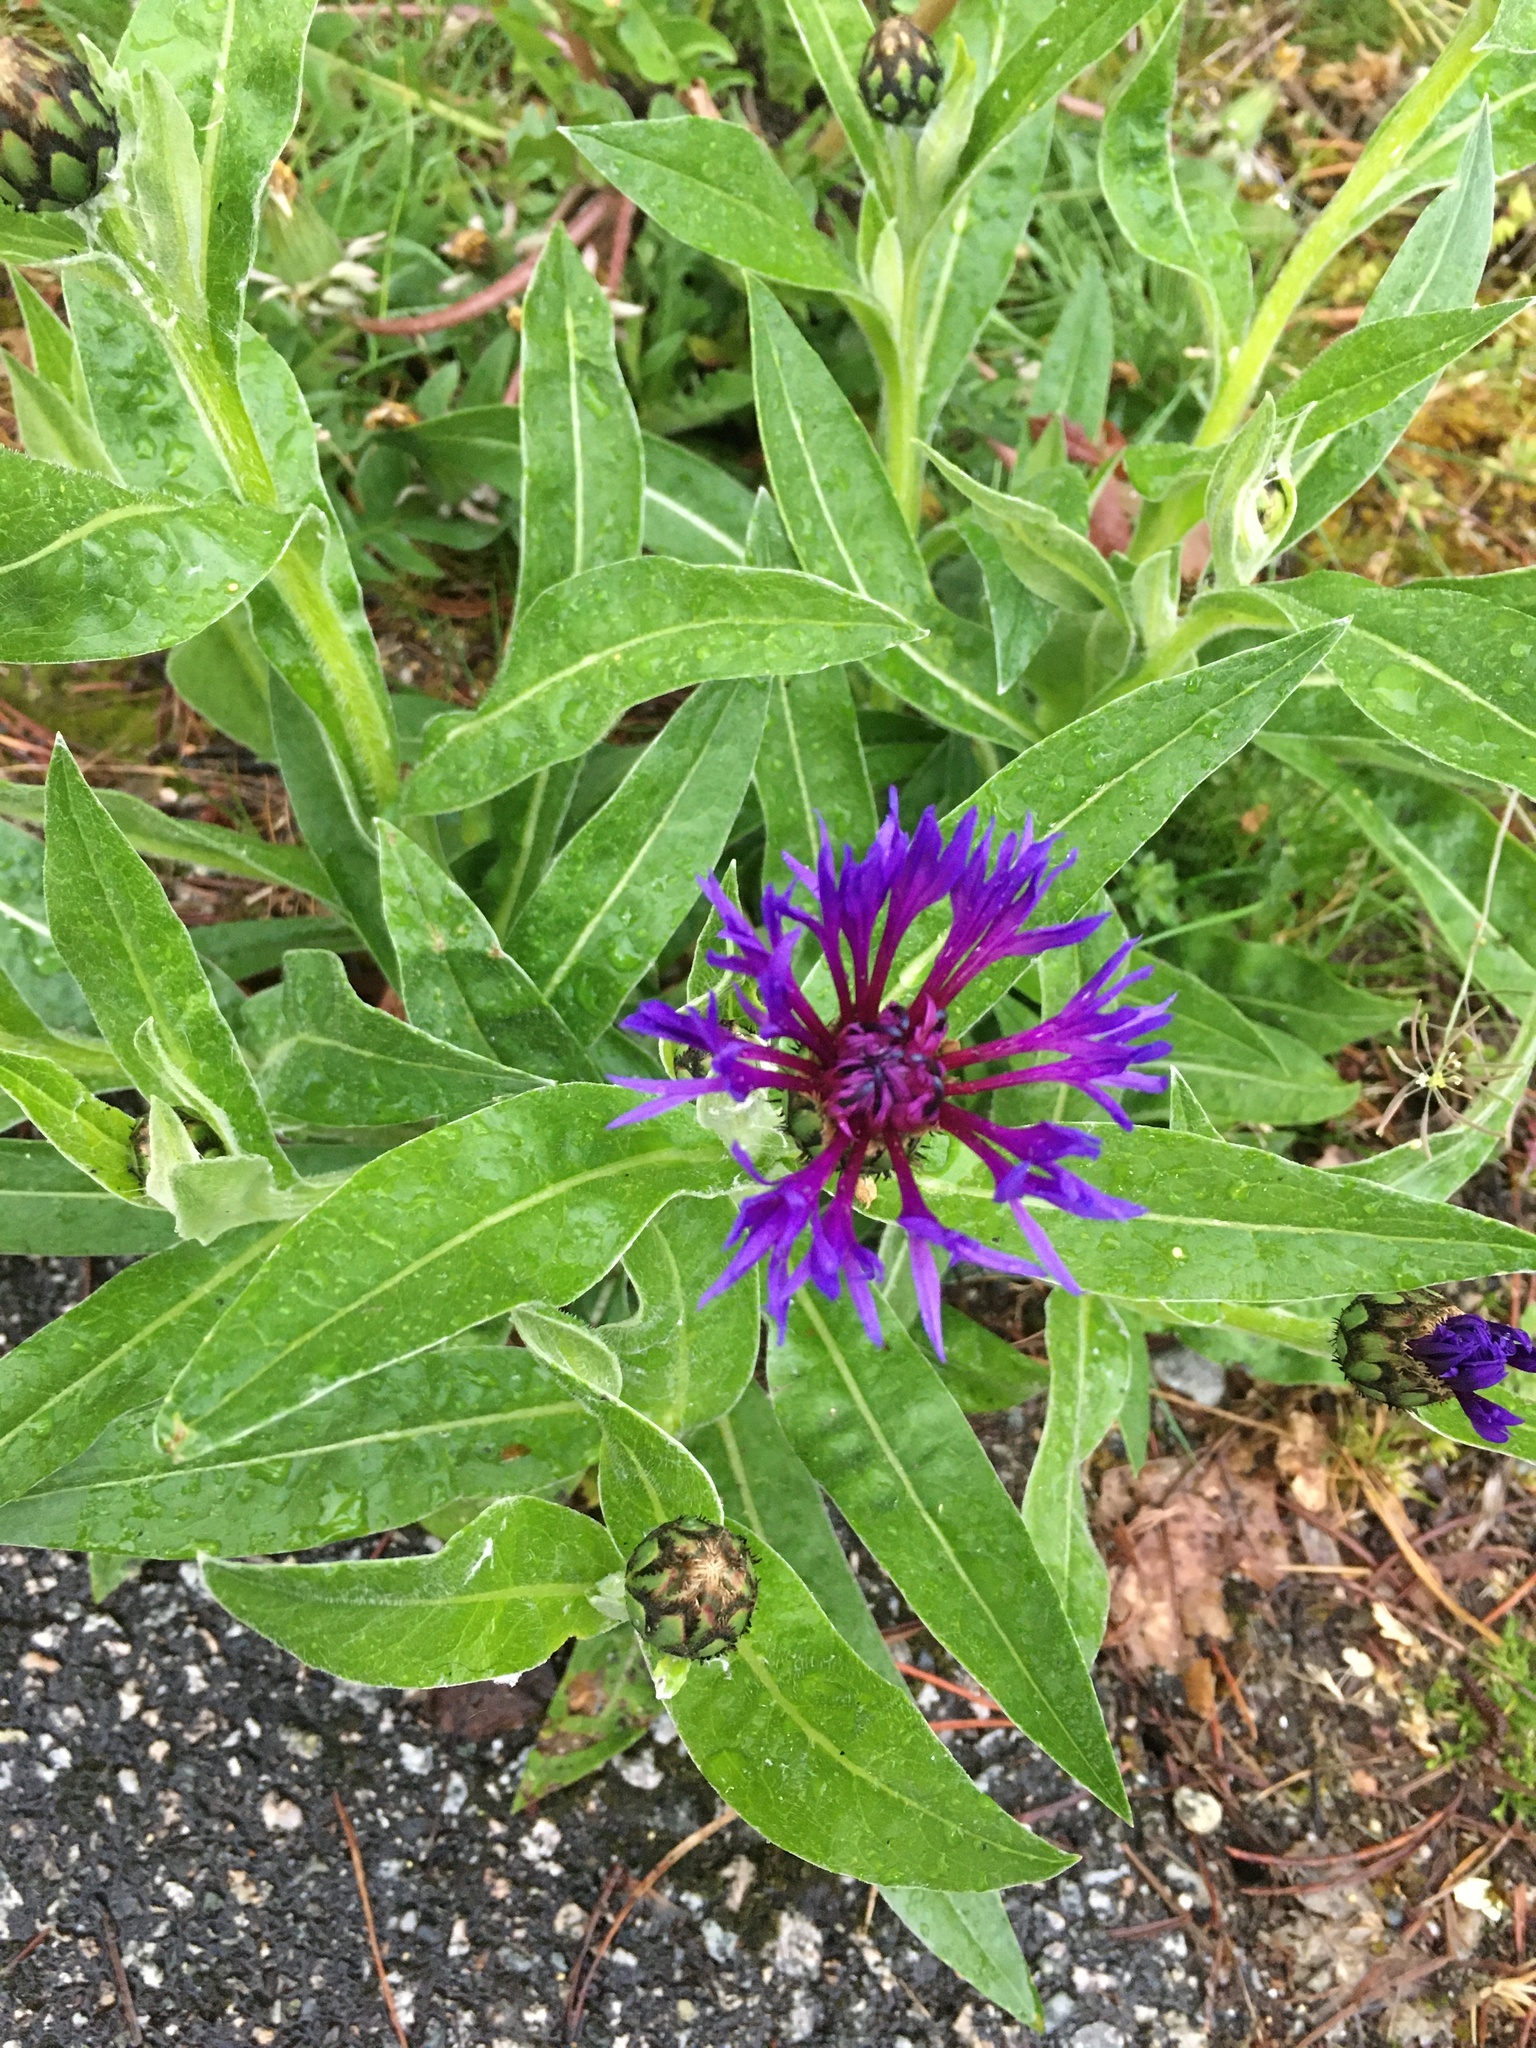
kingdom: Plantae
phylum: Tracheophyta
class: Magnoliopsida
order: Asterales
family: Asteraceae
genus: Centaurea
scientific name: Centaurea montana
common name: Perennial cornflower
